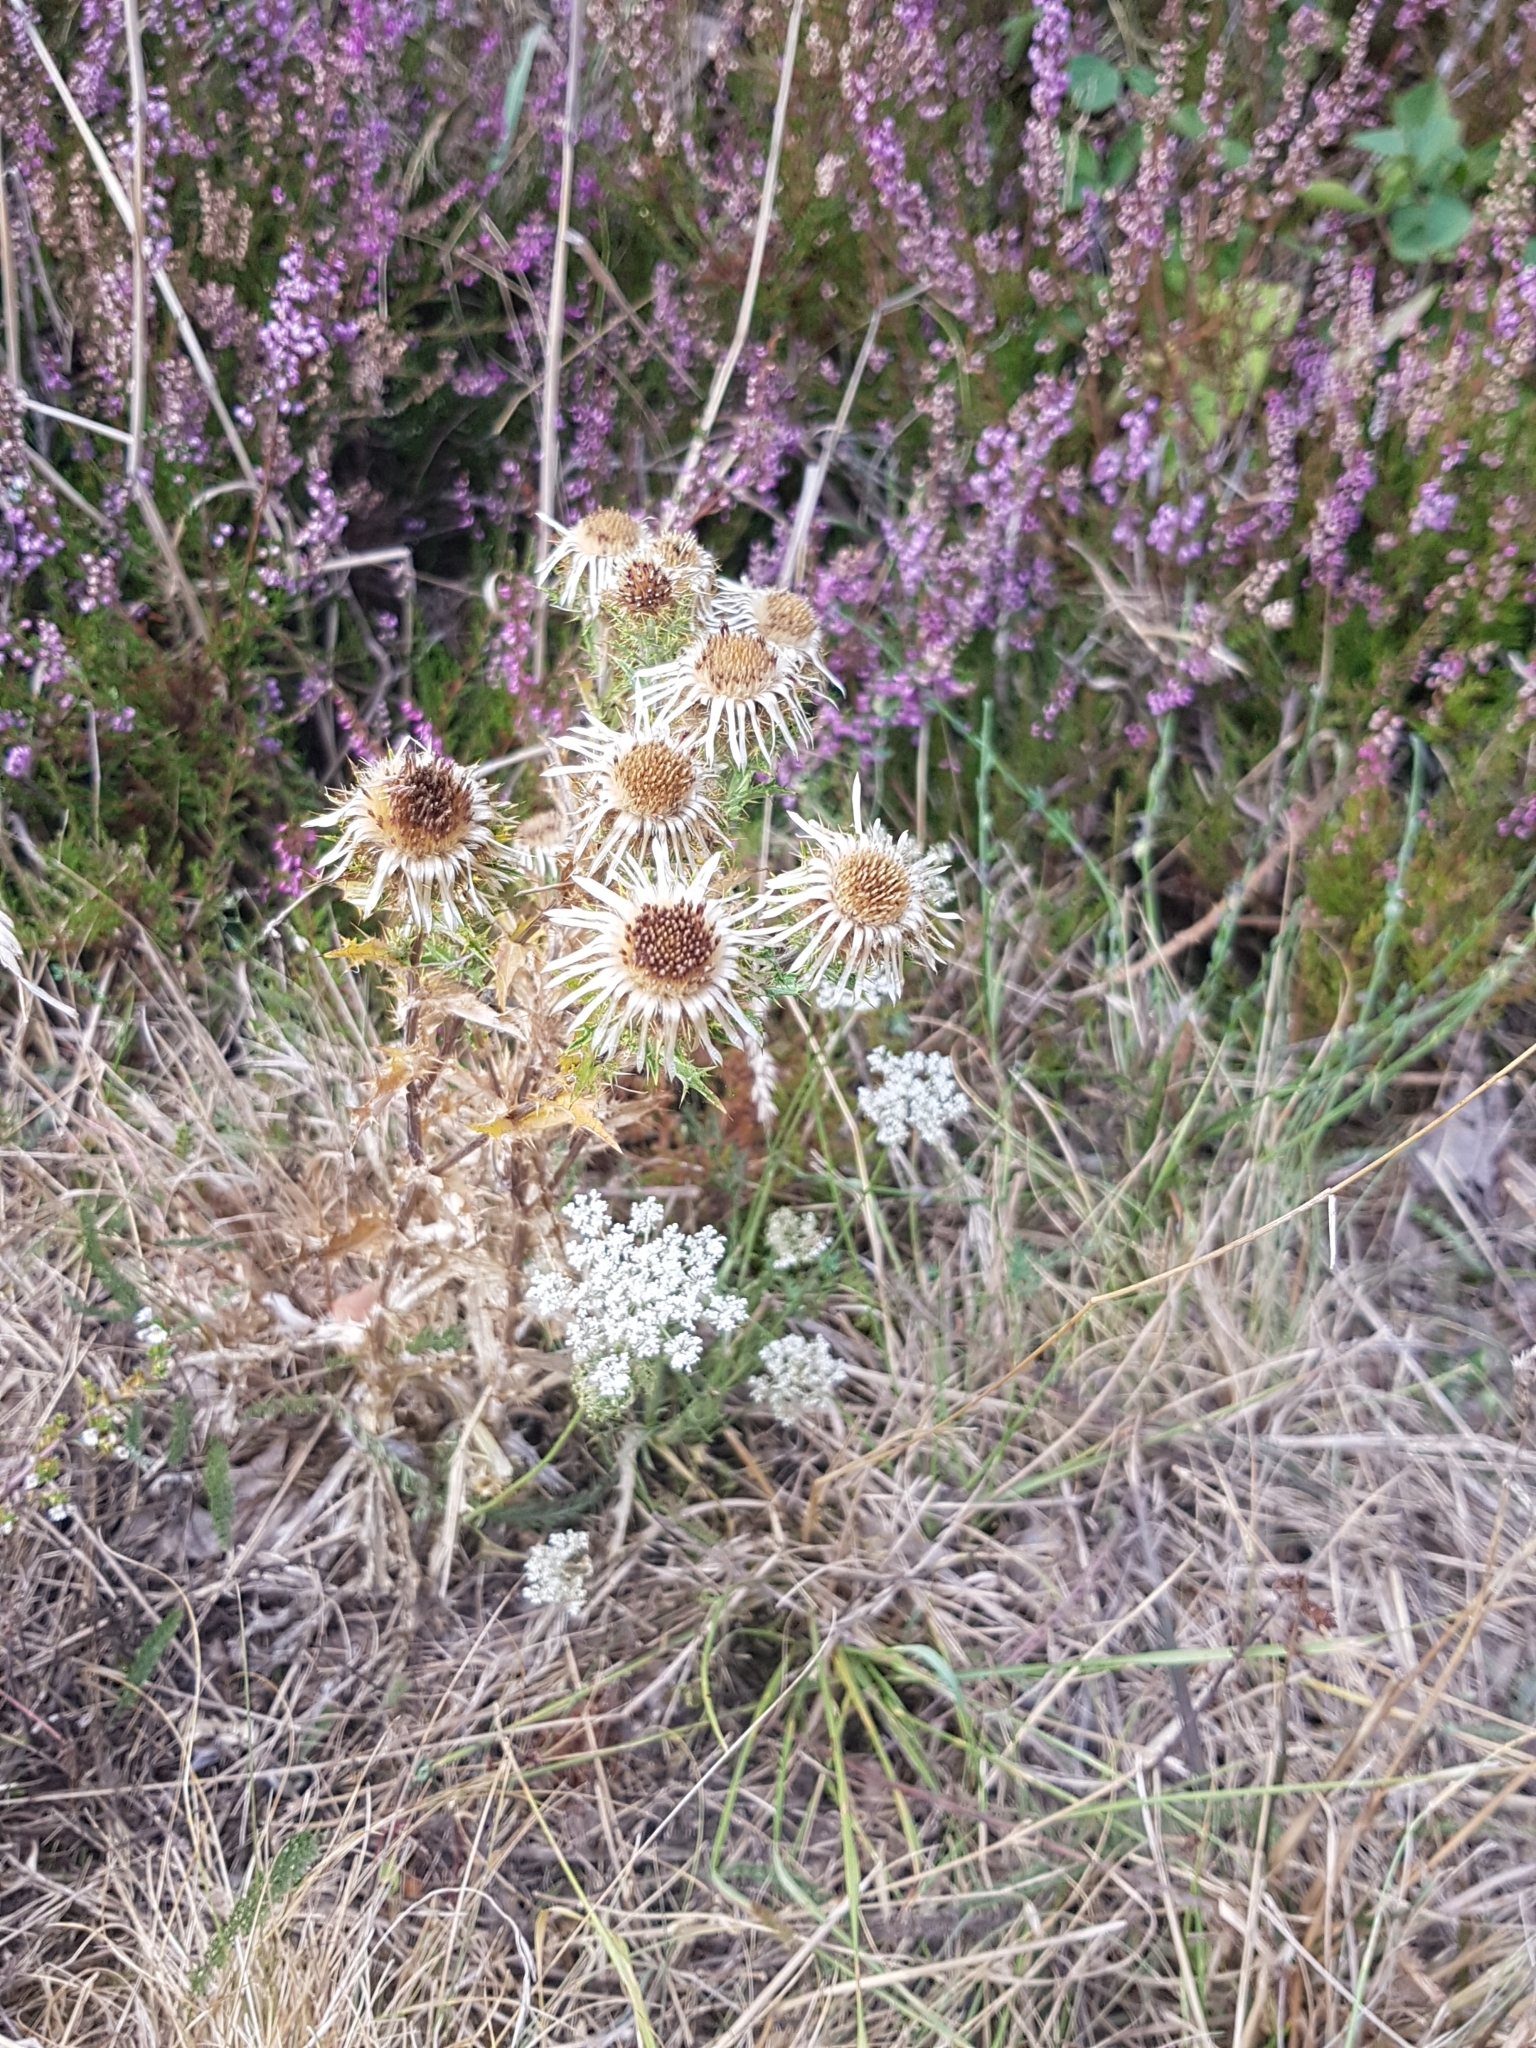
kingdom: Plantae
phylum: Tracheophyta
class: Magnoliopsida
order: Asterales
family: Asteraceae
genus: Carlina
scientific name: Carlina vulgaris
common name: Carline thistle
